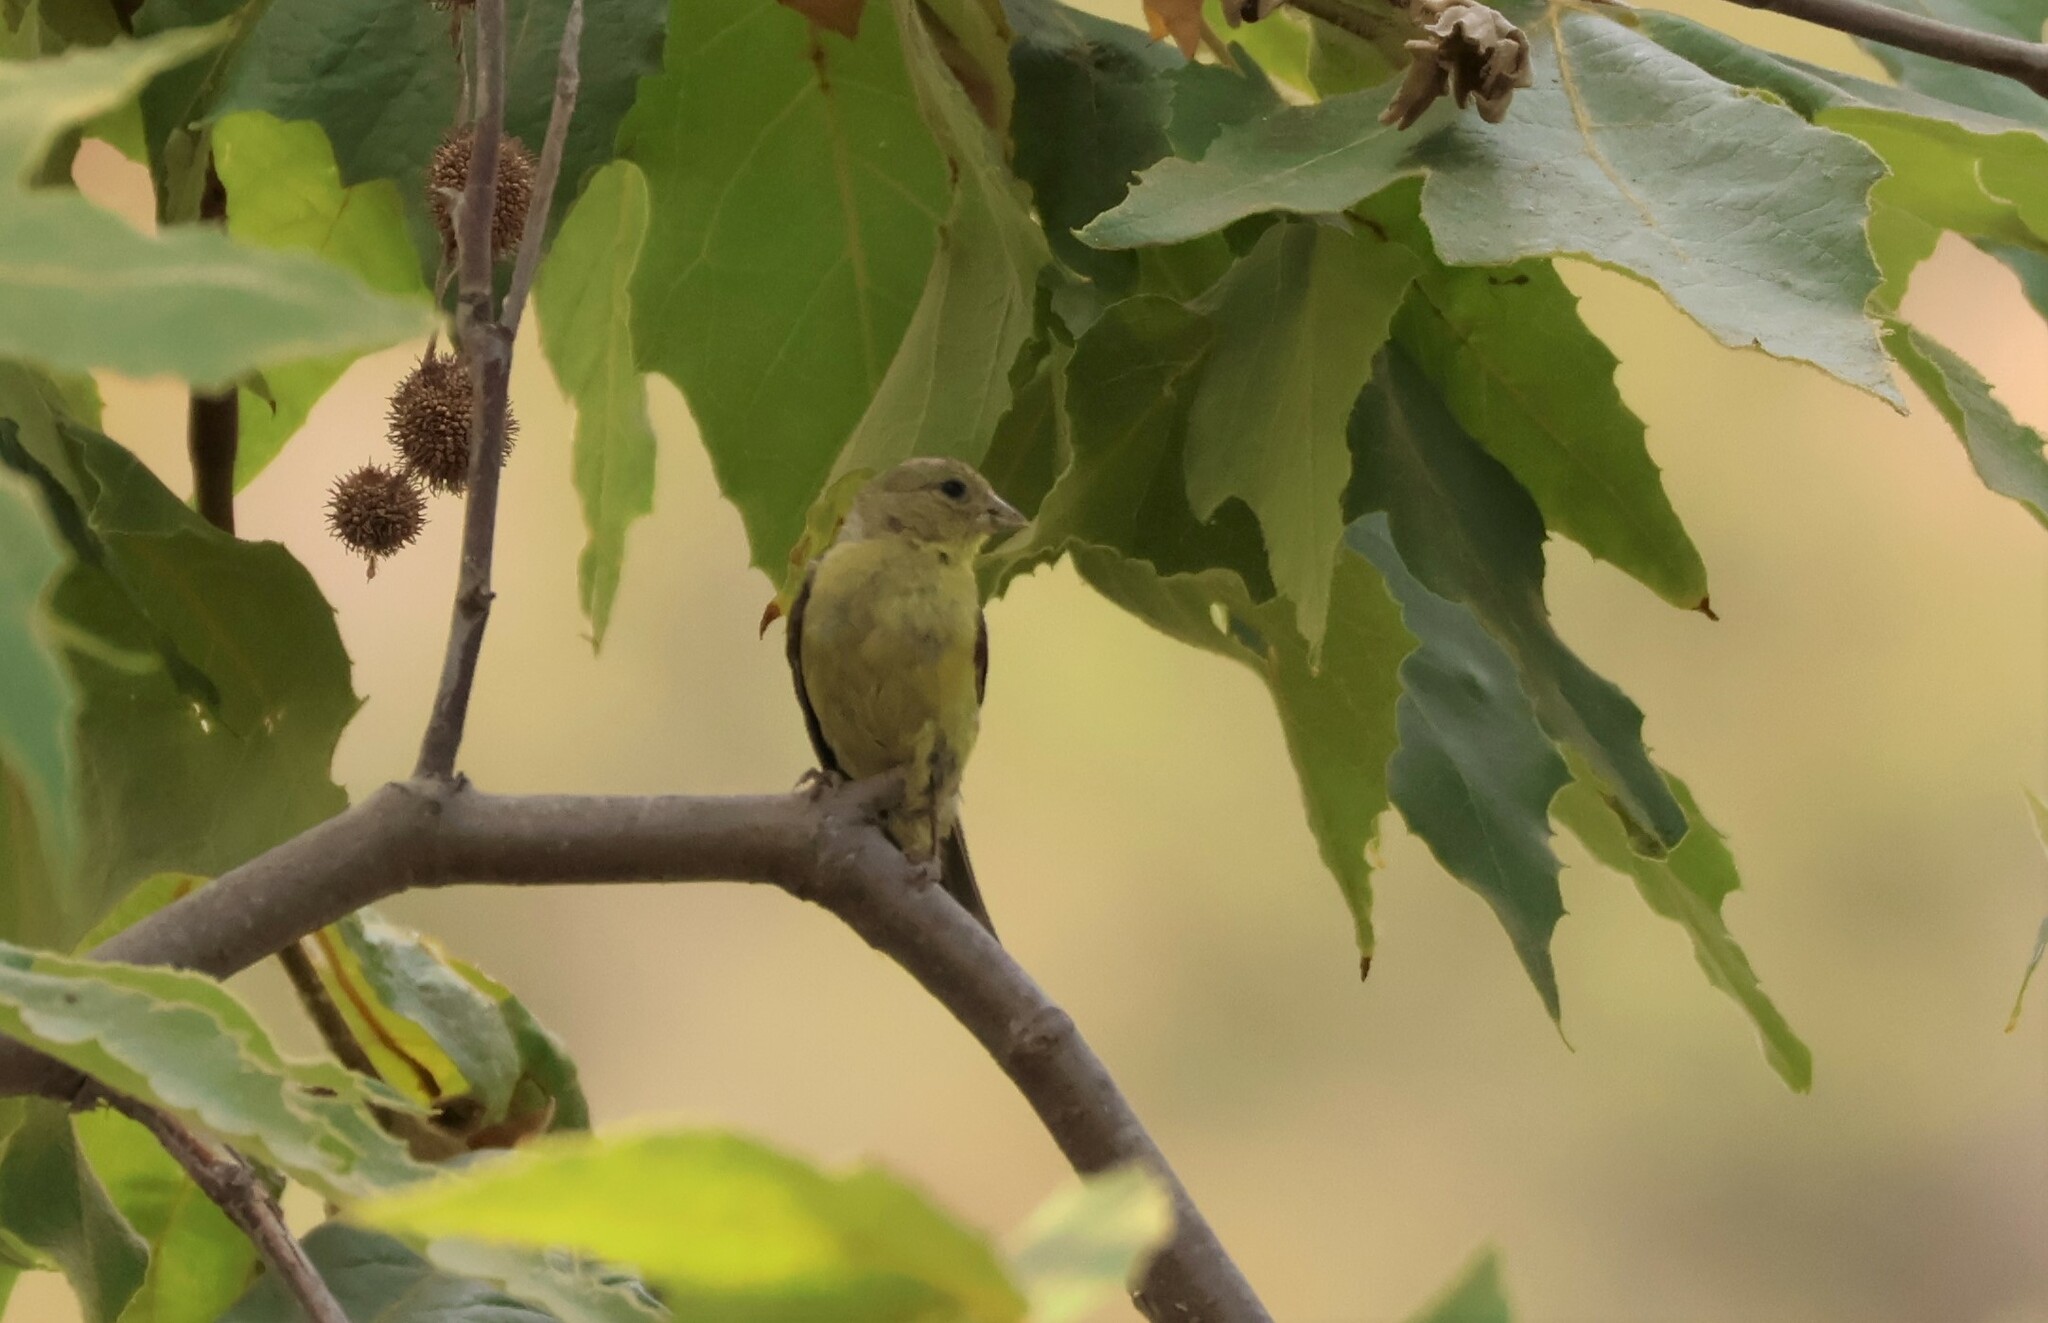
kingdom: Animalia
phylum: Chordata
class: Aves
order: Passeriformes
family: Fringillidae
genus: Spinus
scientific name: Spinus psaltria
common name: Lesser goldfinch
